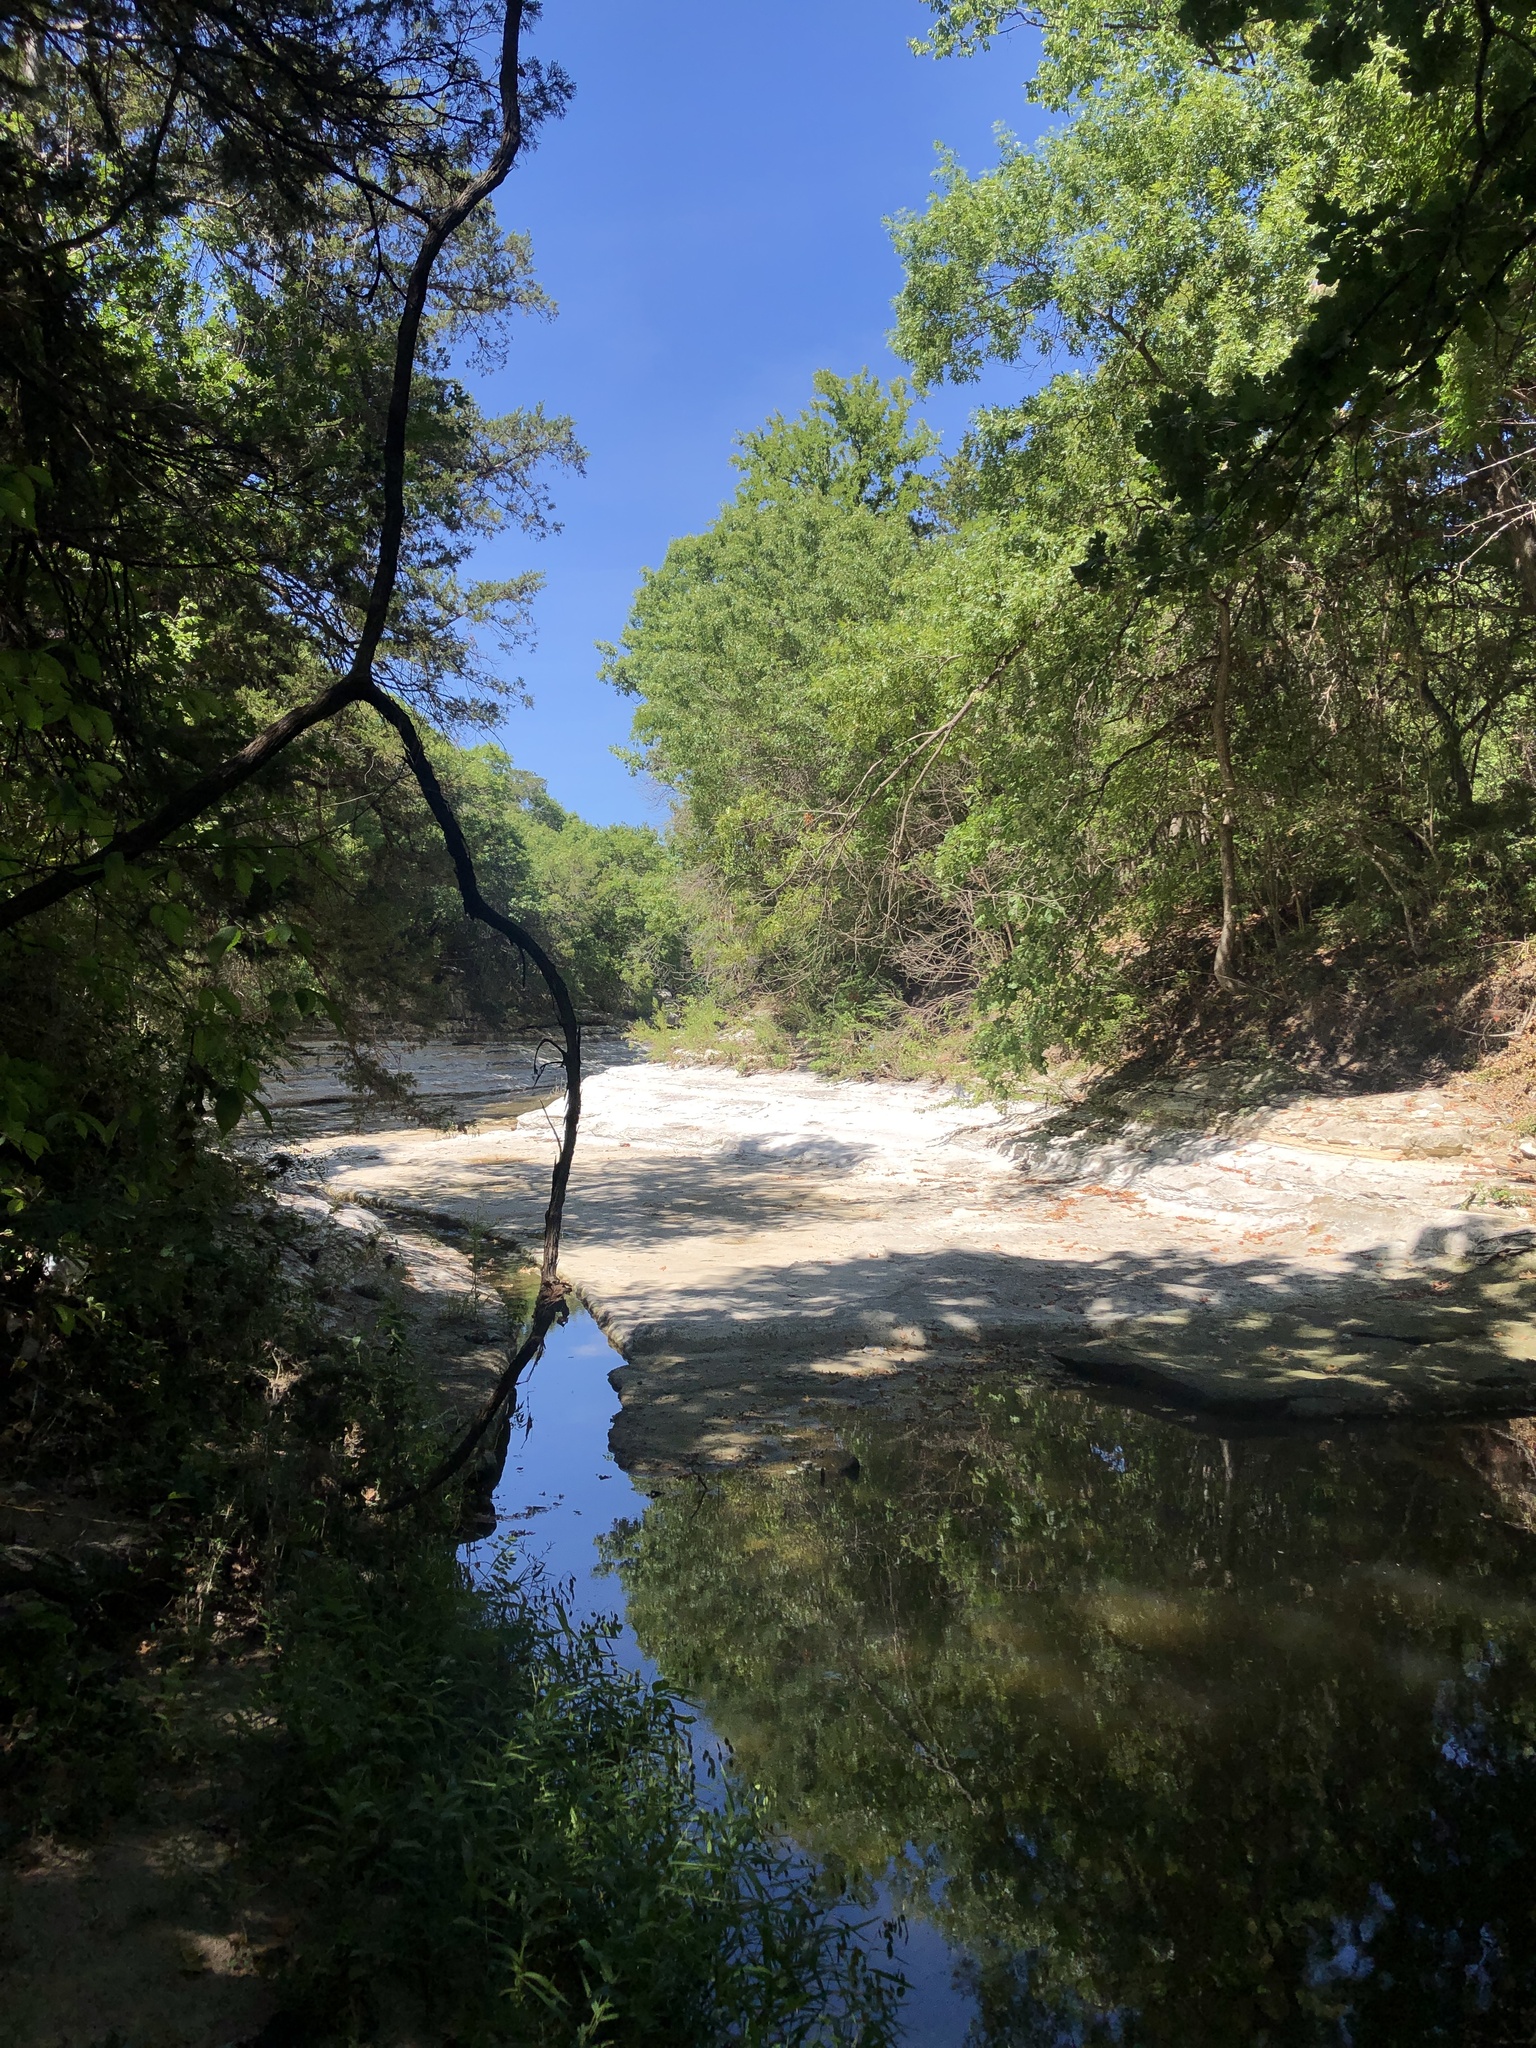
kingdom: Animalia
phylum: Chordata
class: Aves
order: Accipitriformes
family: Accipitridae
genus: Accipiter
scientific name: Accipiter cooperii
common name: Cooper's hawk
